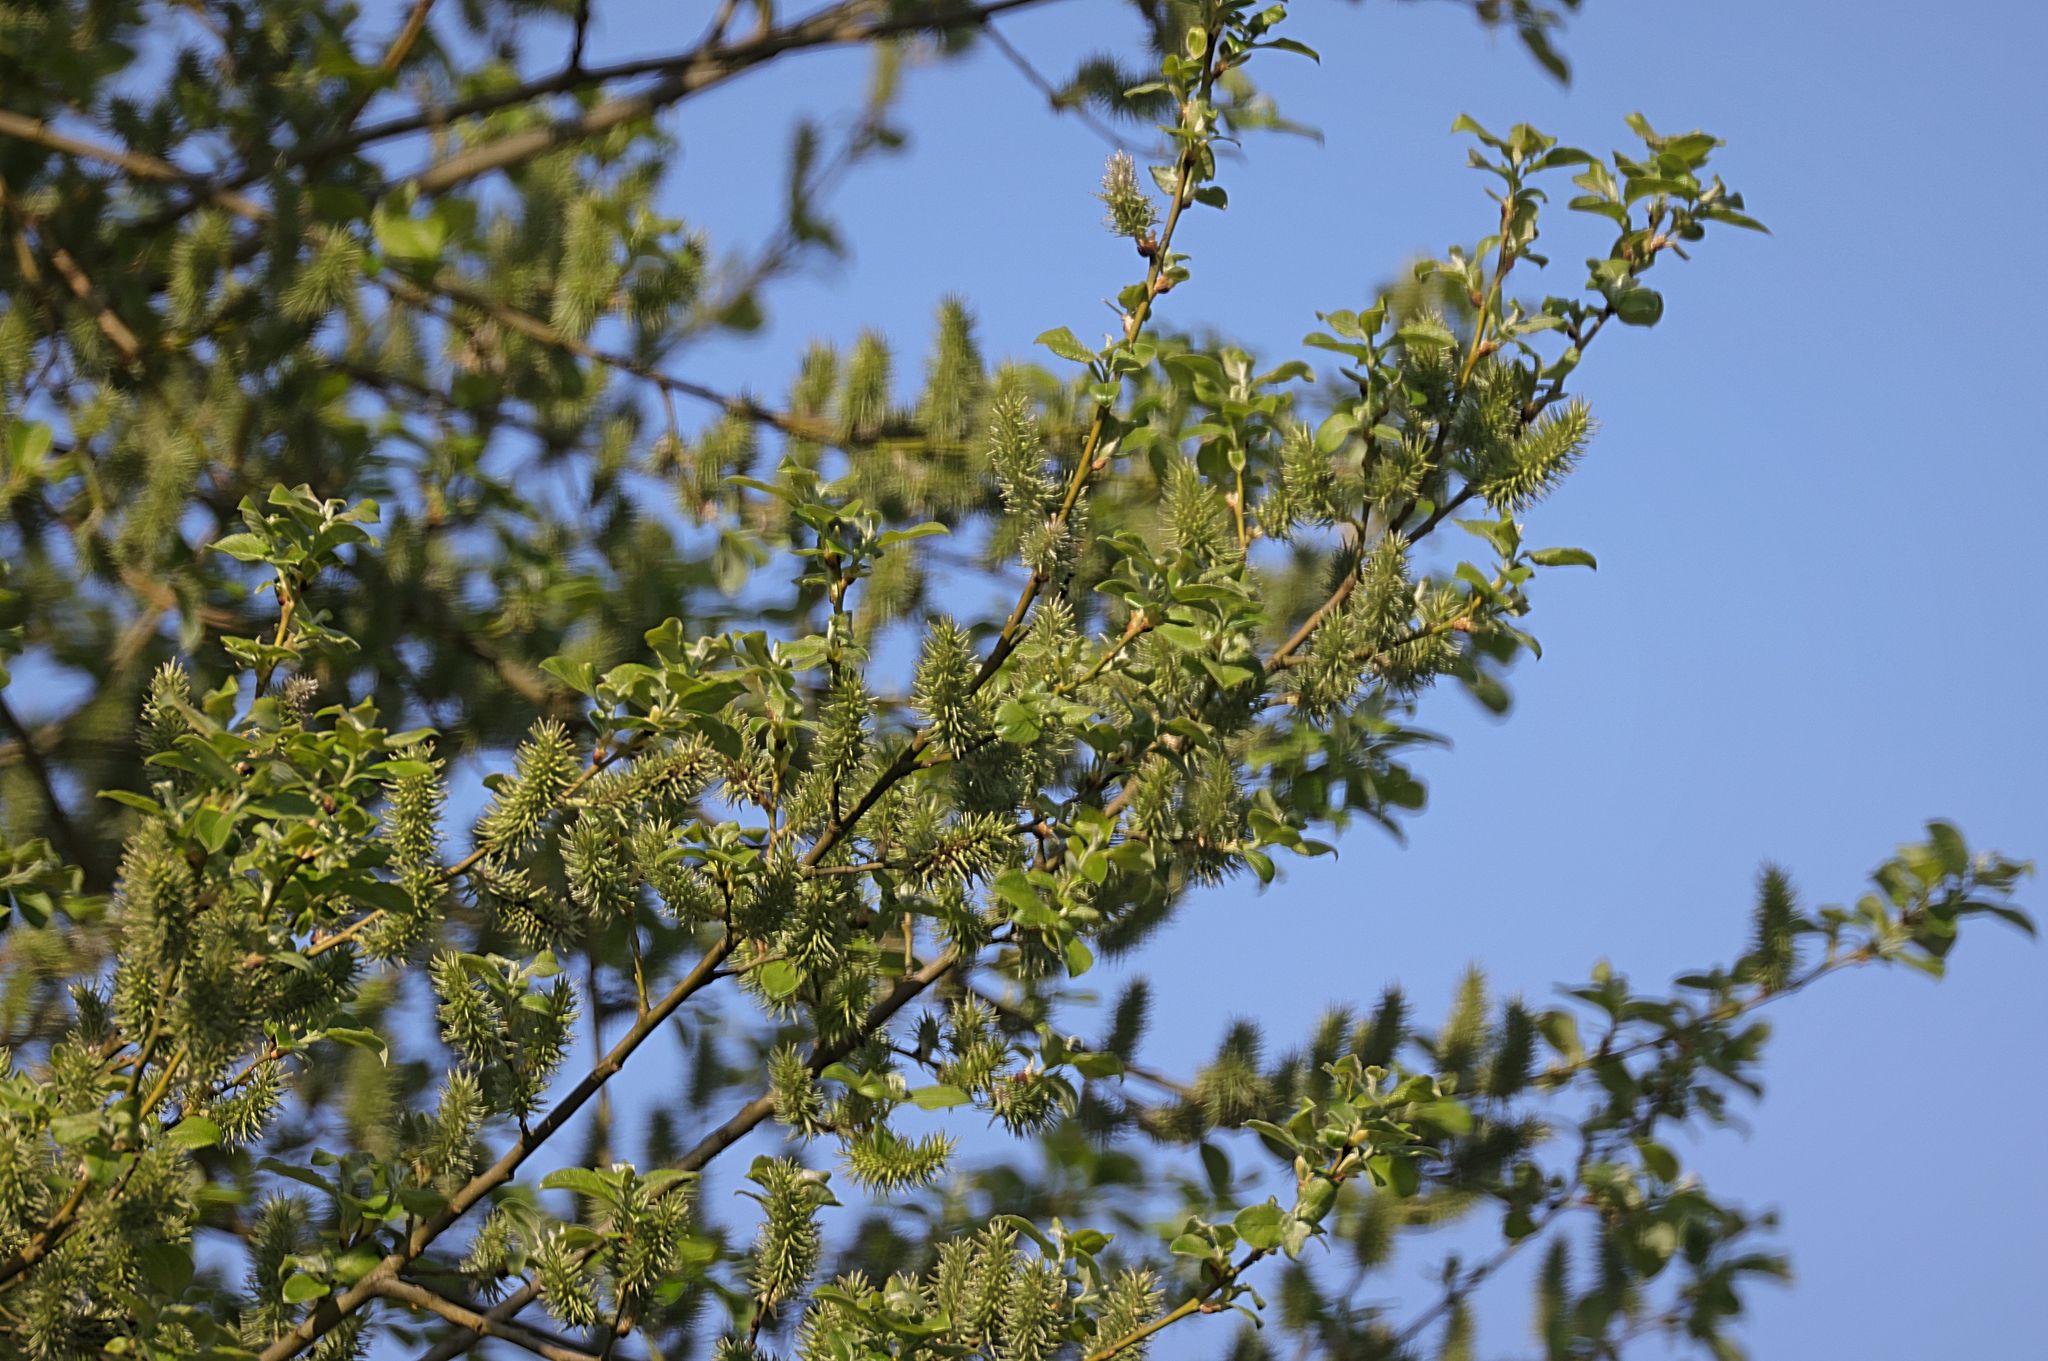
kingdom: Plantae
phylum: Tracheophyta
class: Magnoliopsida
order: Malpighiales
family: Salicaceae
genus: Salix
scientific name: Salix cinerea
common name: Common sallow
